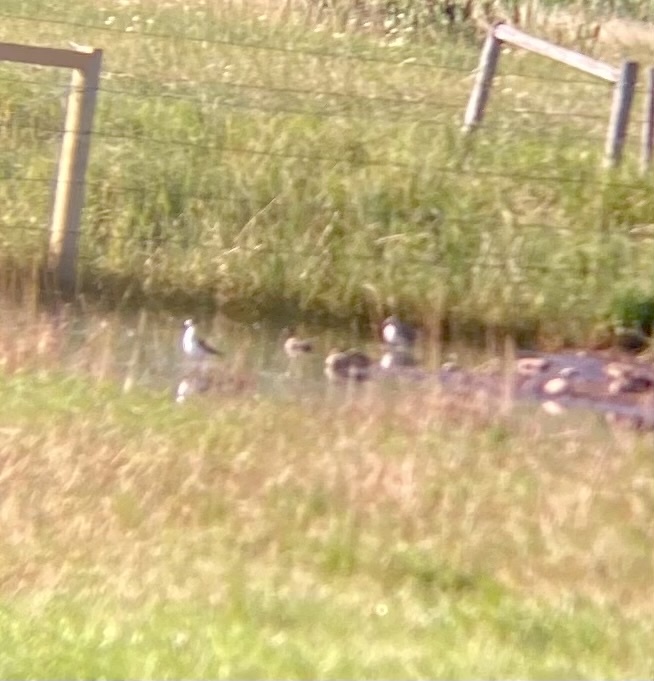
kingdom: Animalia
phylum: Chordata
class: Aves
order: Charadriiformes
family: Recurvirostridae
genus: Himantopus
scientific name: Himantopus mexicanus
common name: Black-necked stilt
